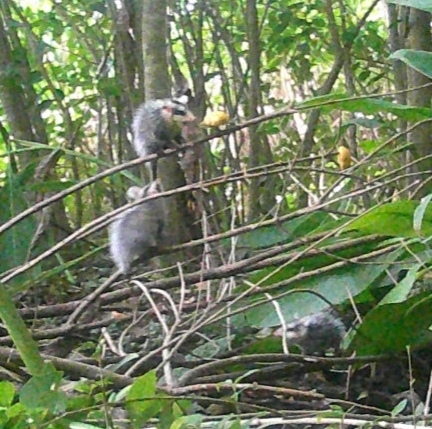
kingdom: Animalia
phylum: Chordata
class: Mammalia
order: Didelphimorphia
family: Didelphidae
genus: Didelphis
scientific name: Didelphis albiventris
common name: White-eared opossum
